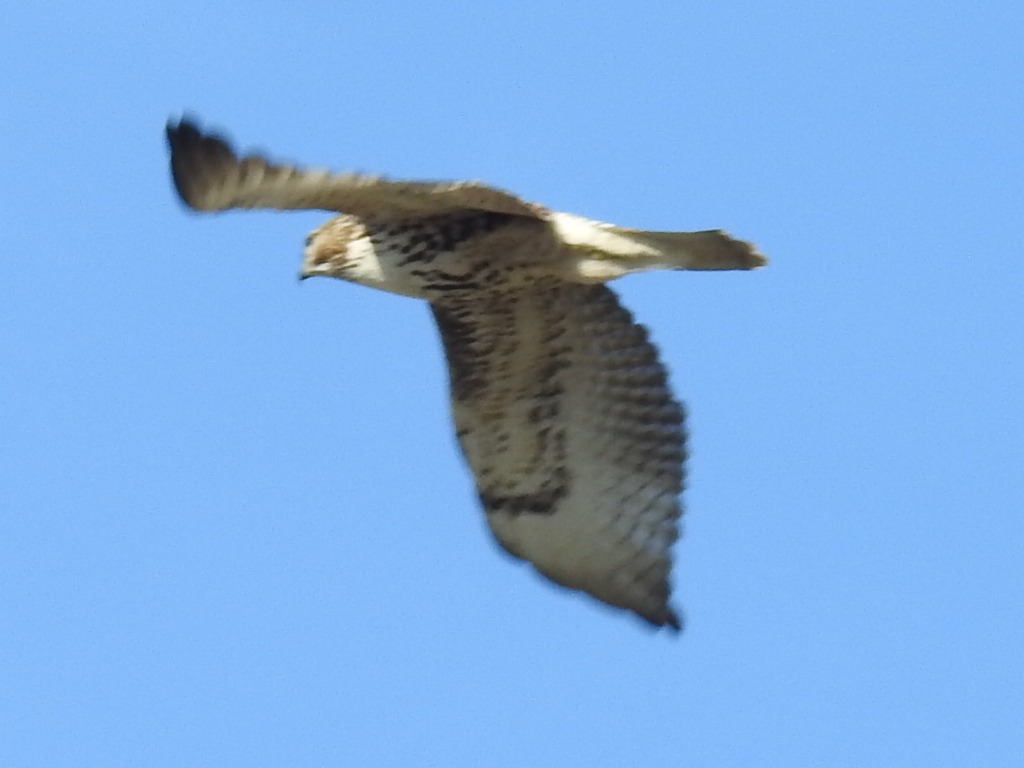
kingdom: Animalia
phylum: Chordata
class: Aves
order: Accipitriformes
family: Accipitridae
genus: Buteo
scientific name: Buteo jamaicensis
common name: Red-tailed hawk
